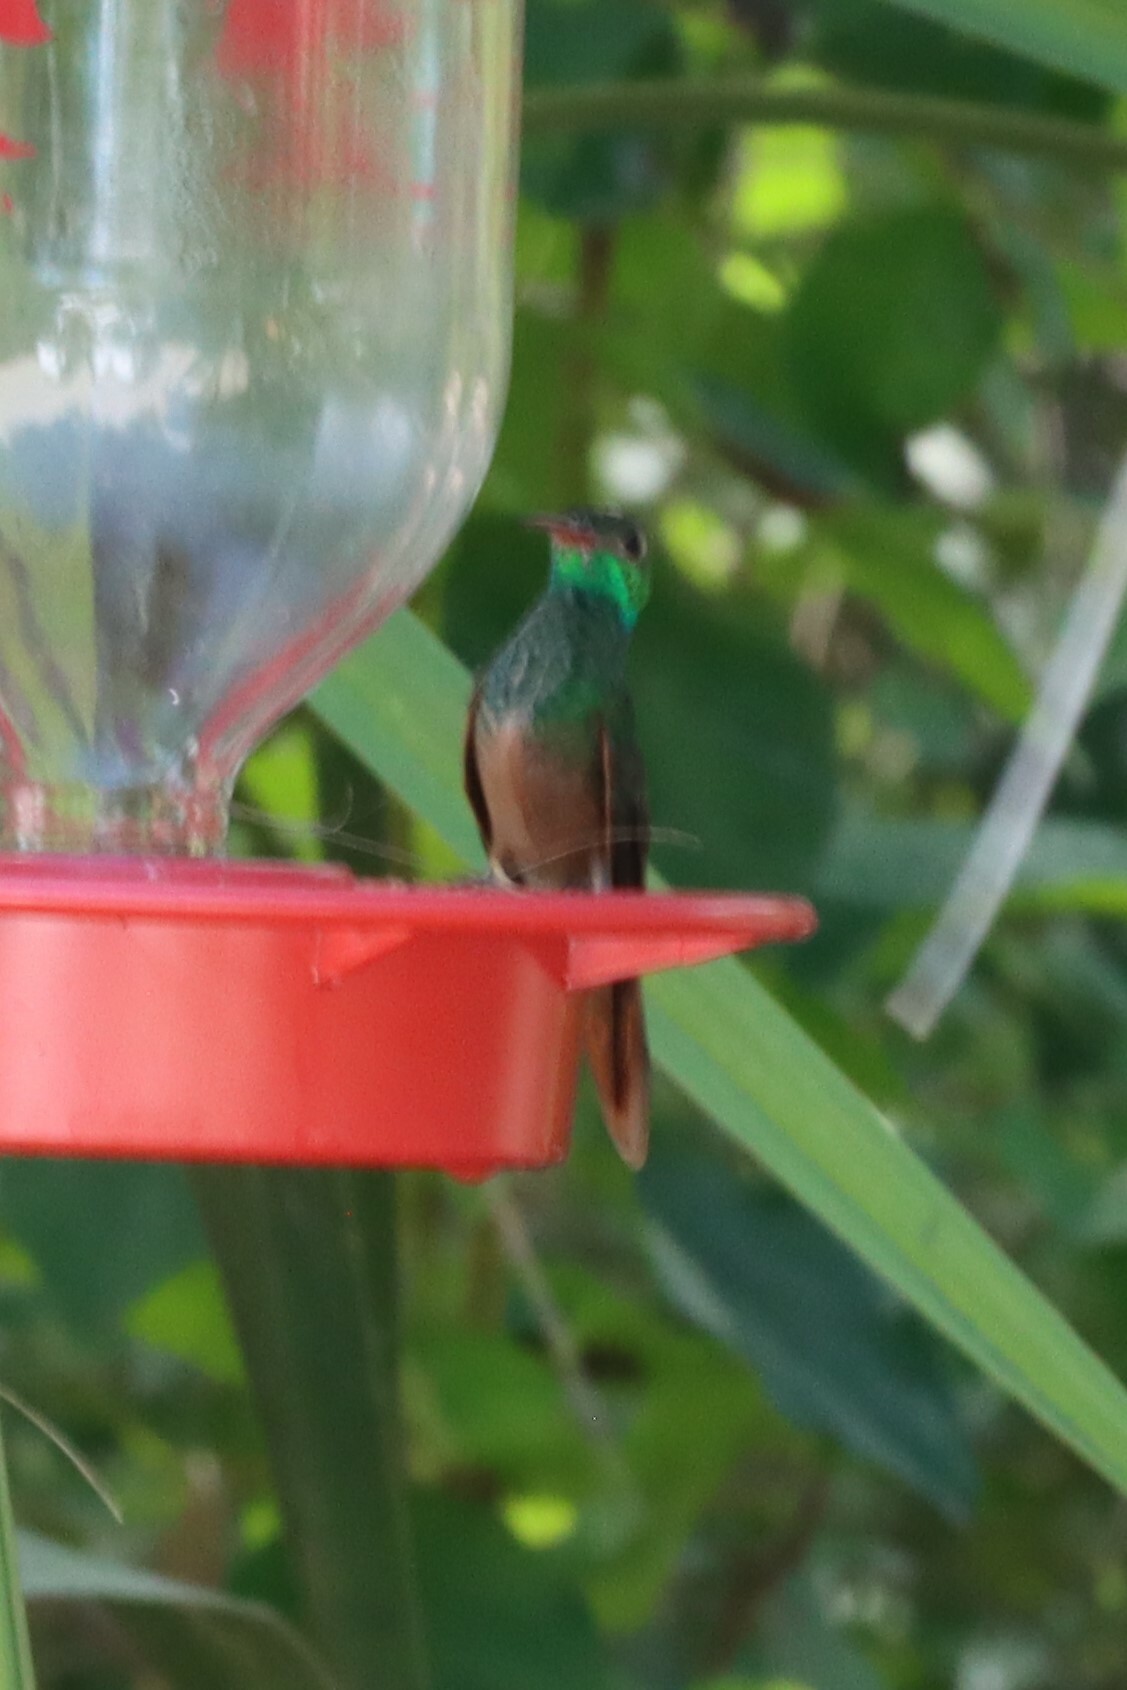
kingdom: Animalia
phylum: Chordata
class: Aves
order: Apodiformes
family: Trochilidae
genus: Amazilia
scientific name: Amazilia yucatanensis
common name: Buff-bellied hummingbird
